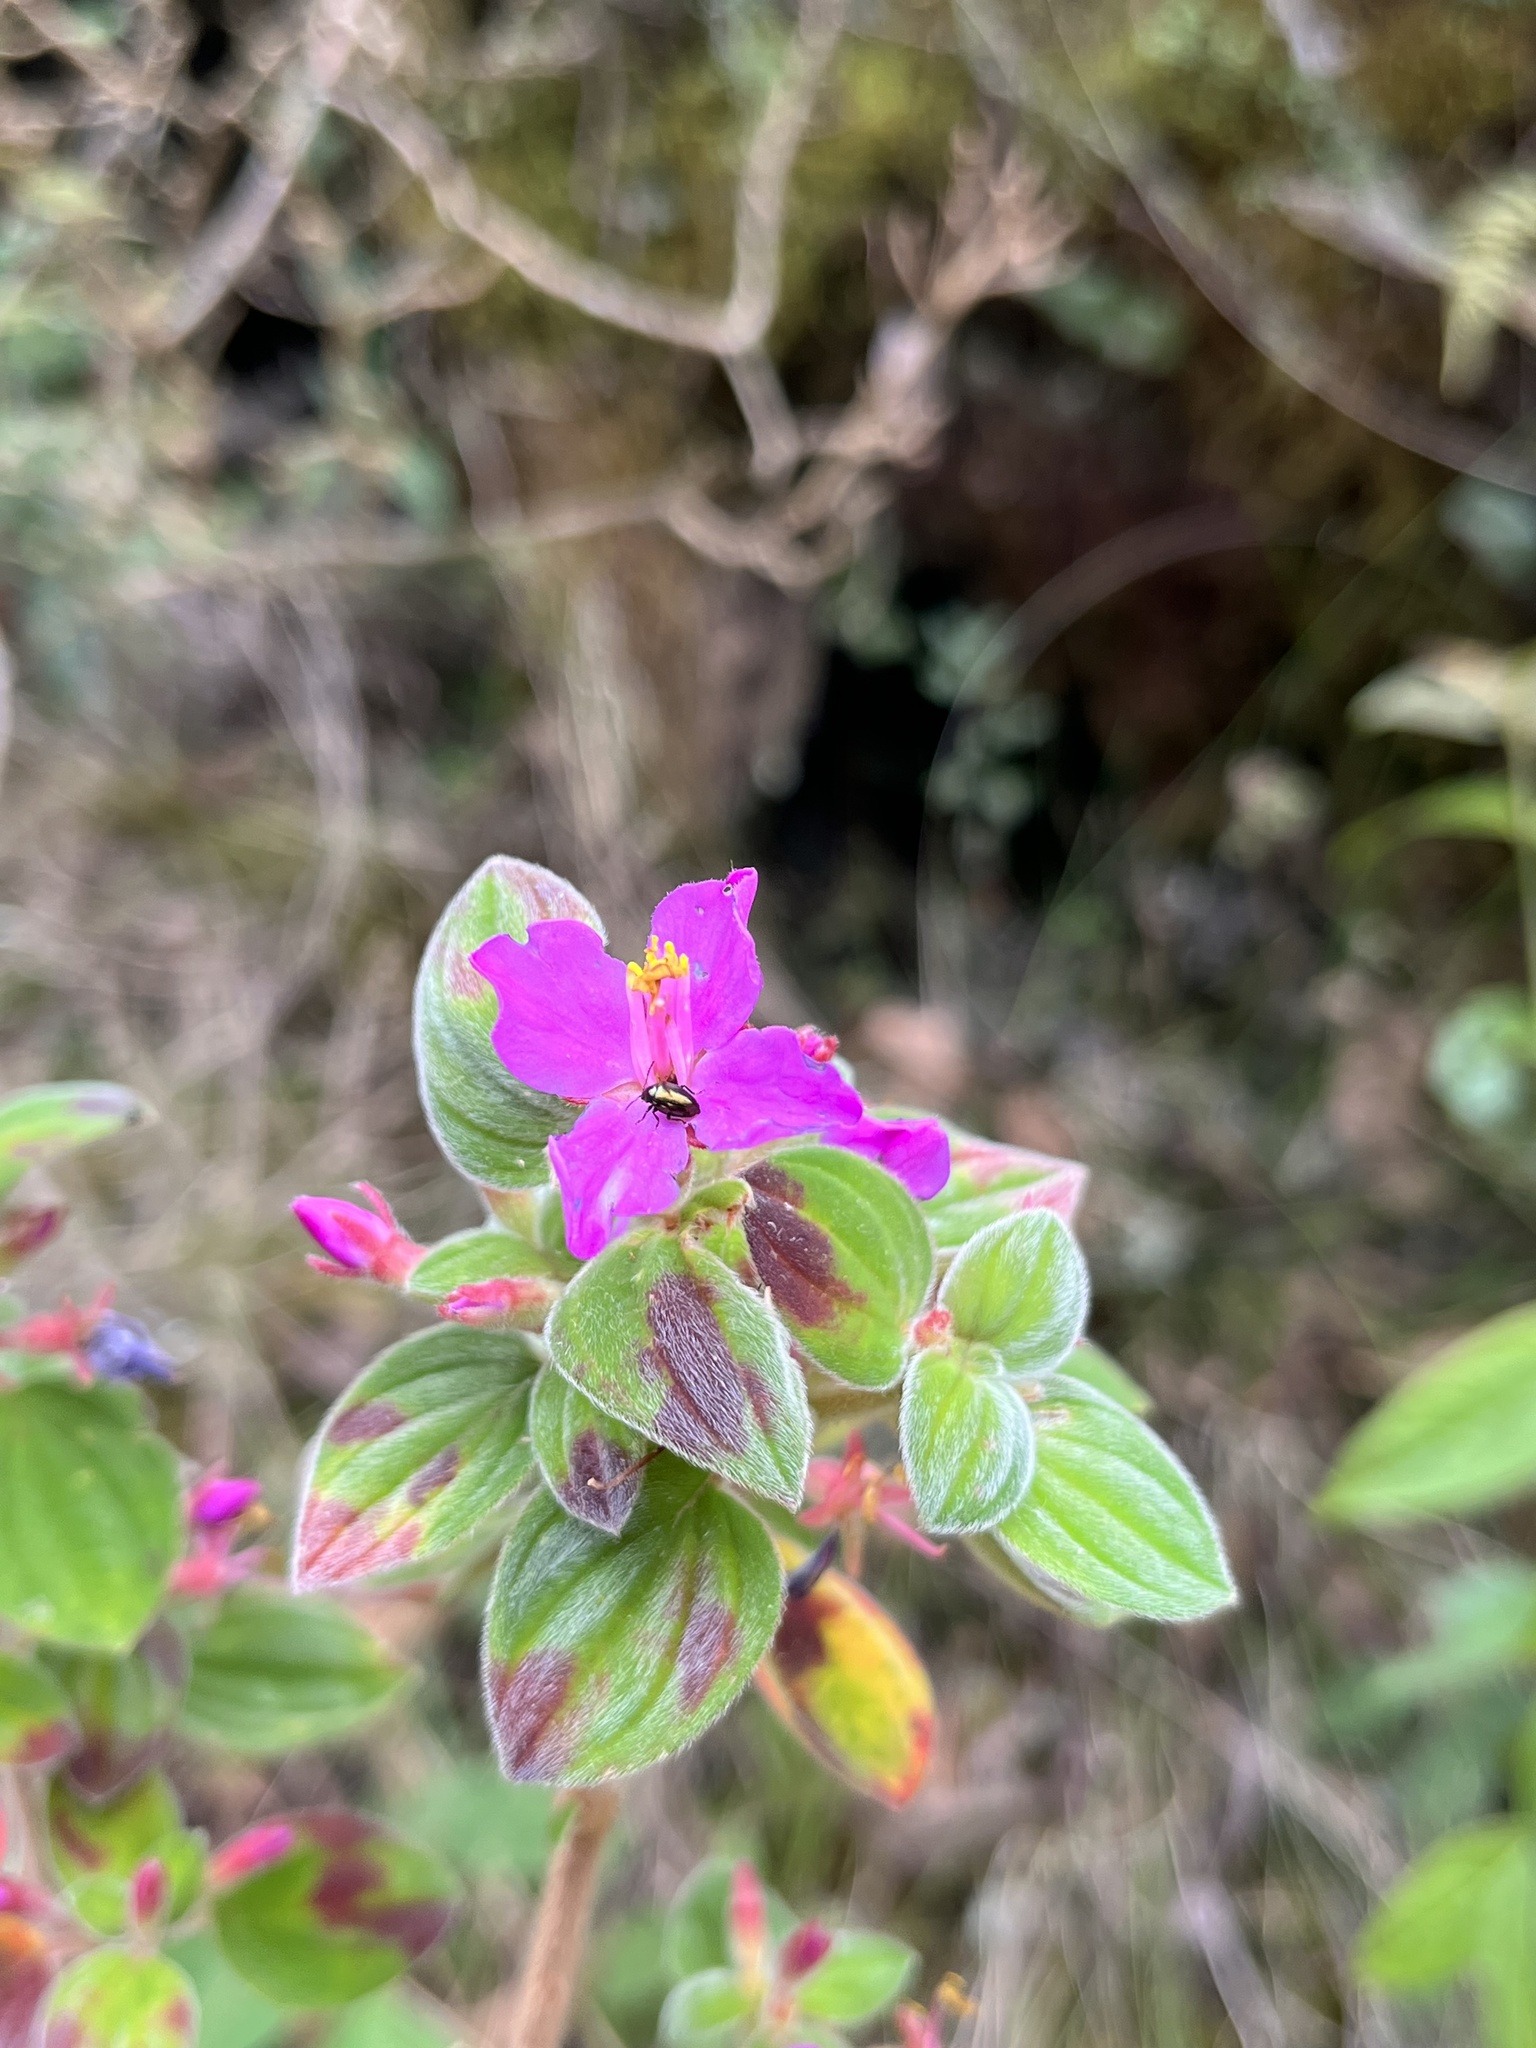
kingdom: Plantae
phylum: Tracheophyta
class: Magnoliopsida
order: Myrtales
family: Melastomataceae
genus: Monochaetum
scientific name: Monochaetum bonplandii
